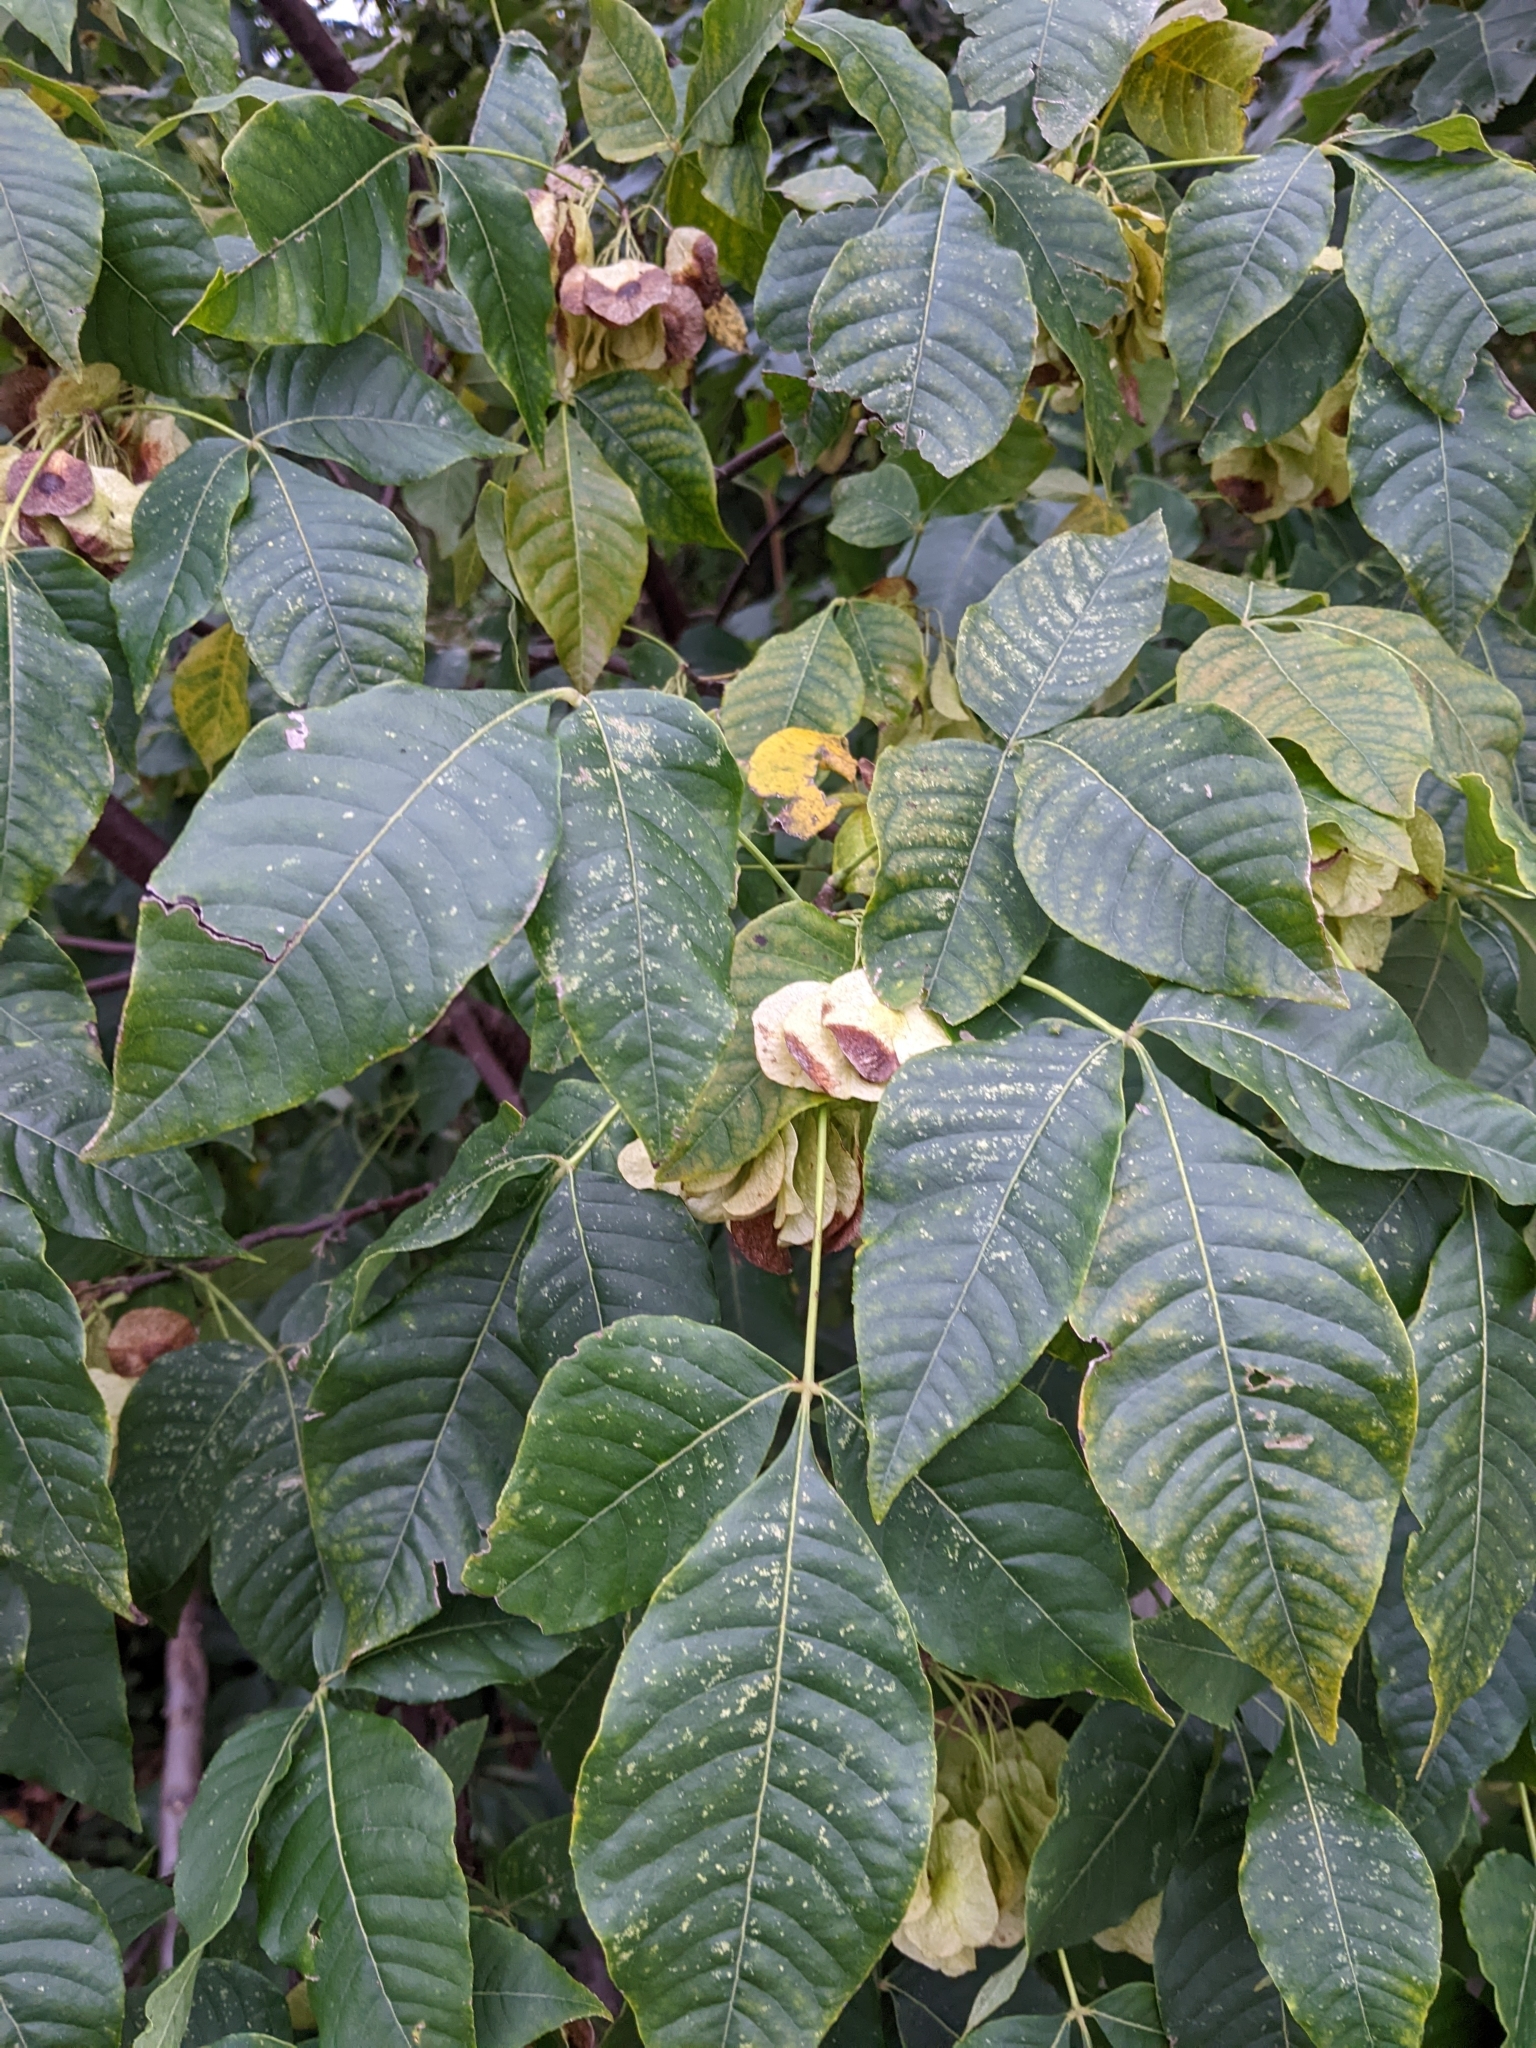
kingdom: Plantae
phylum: Tracheophyta
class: Magnoliopsida
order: Sapindales
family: Rutaceae
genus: Ptelea
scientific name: Ptelea trifoliata
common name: Common hop-tree
